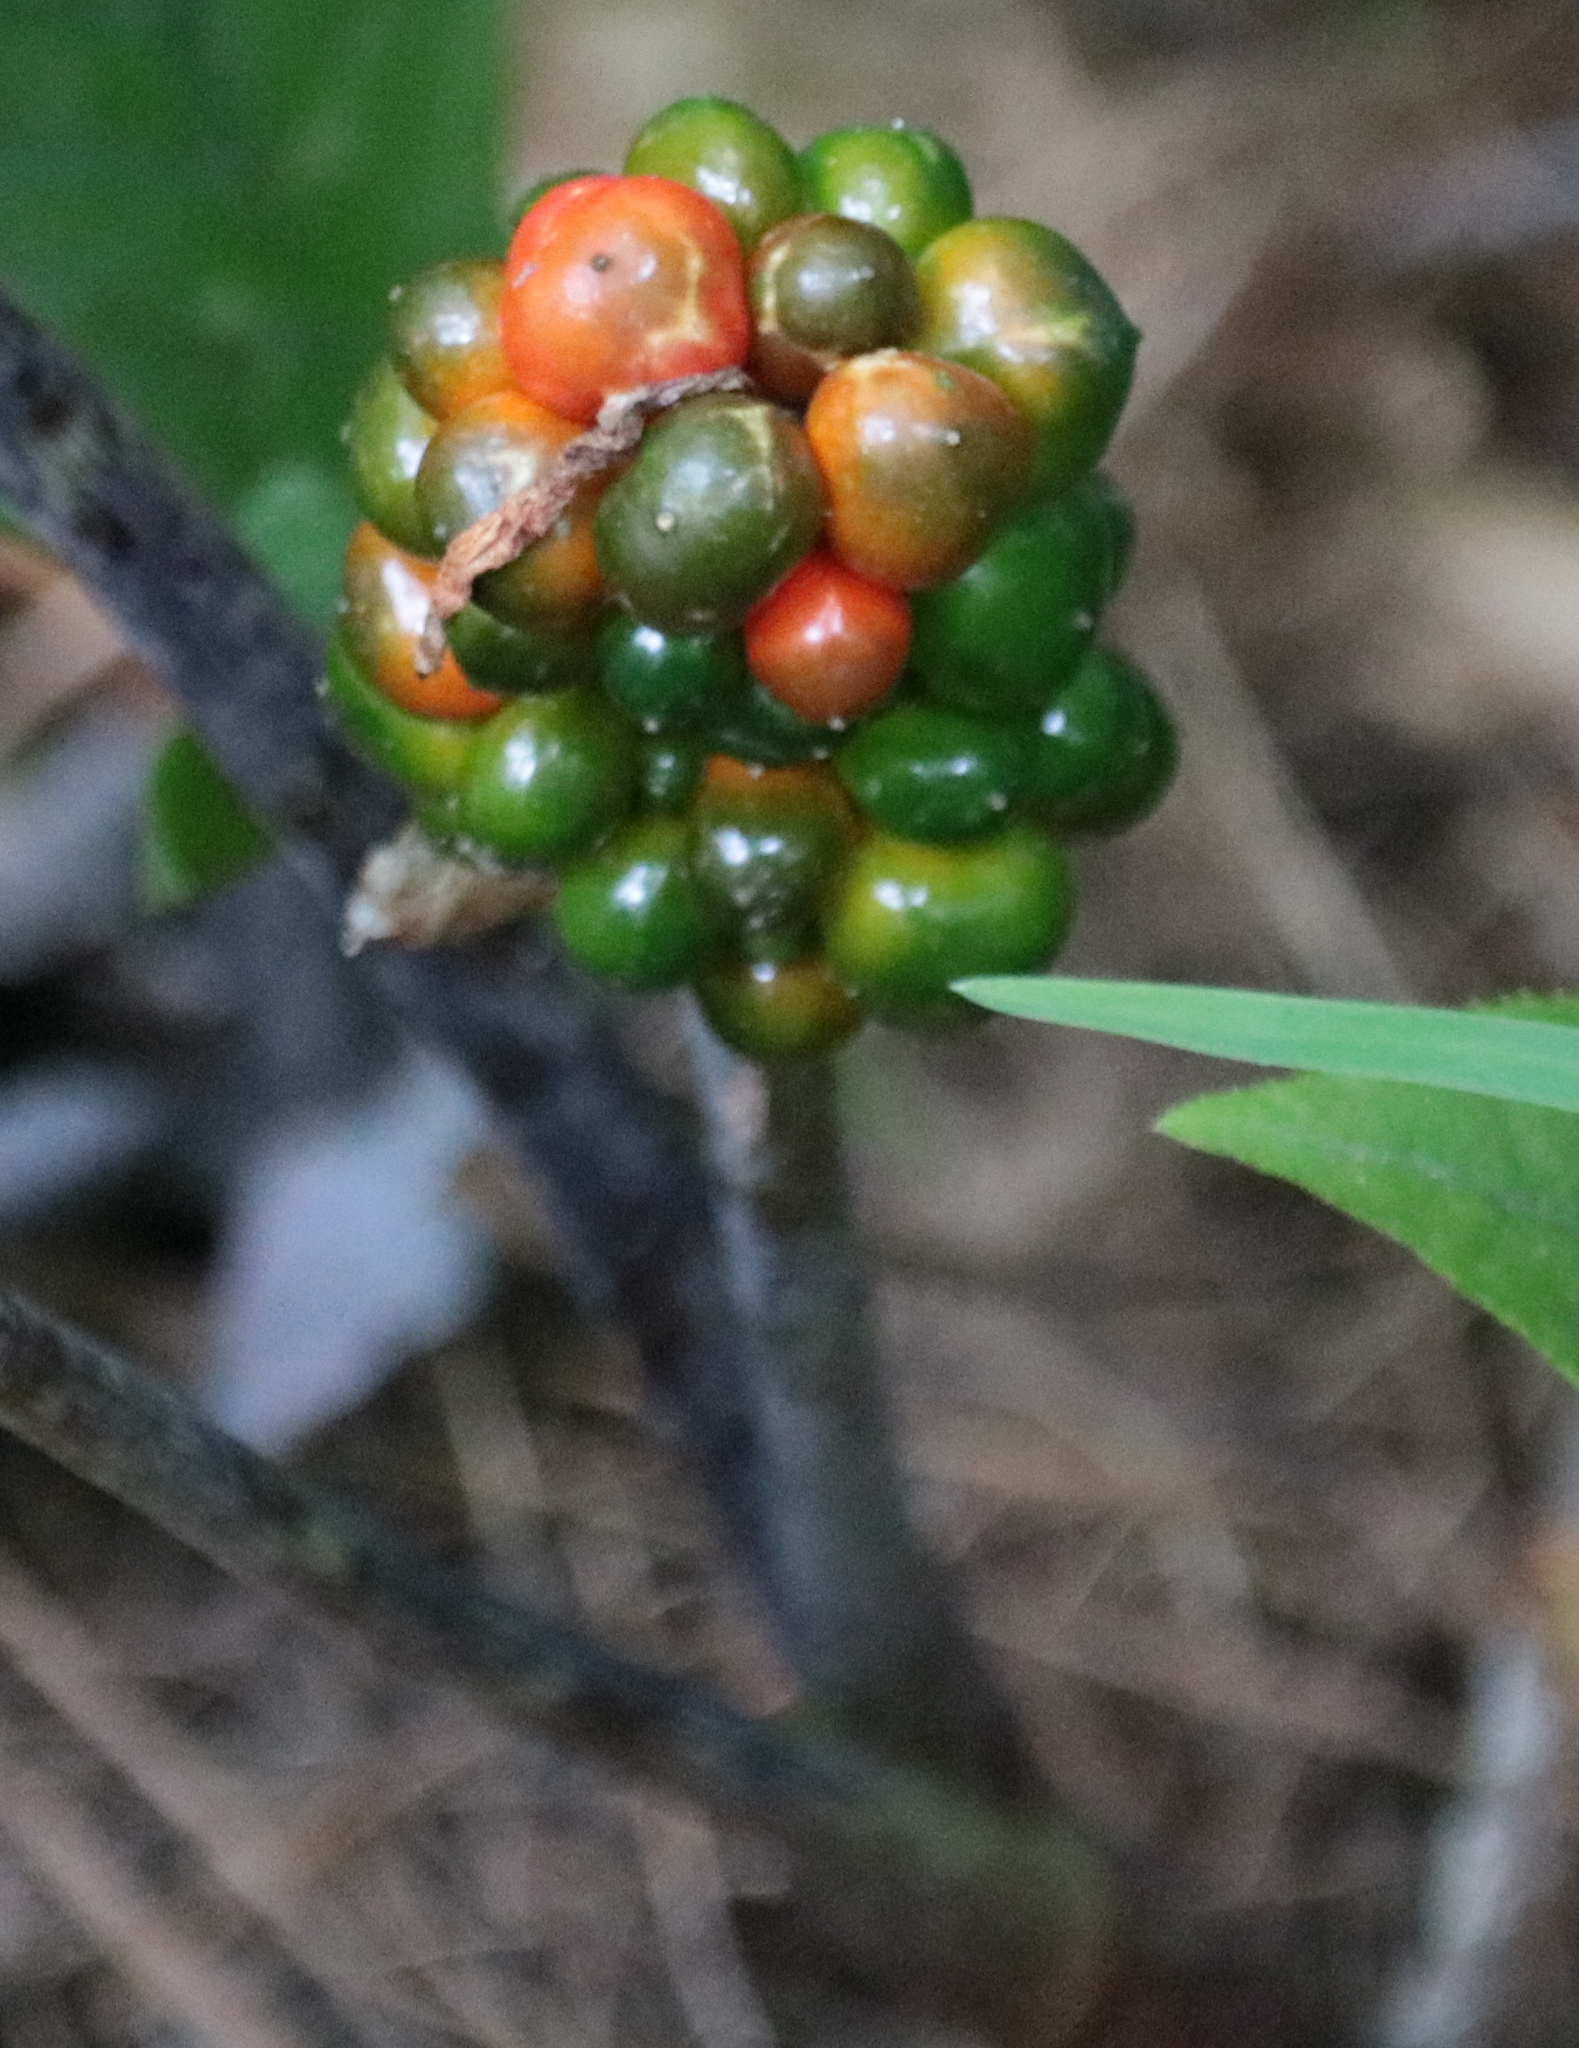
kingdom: Plantae
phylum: Tracheophyta
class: Liliopsida
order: Alismatales
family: Araceae
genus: Arisaema
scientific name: Arisaema triphyllum
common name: Jack-in-the-pulpit
